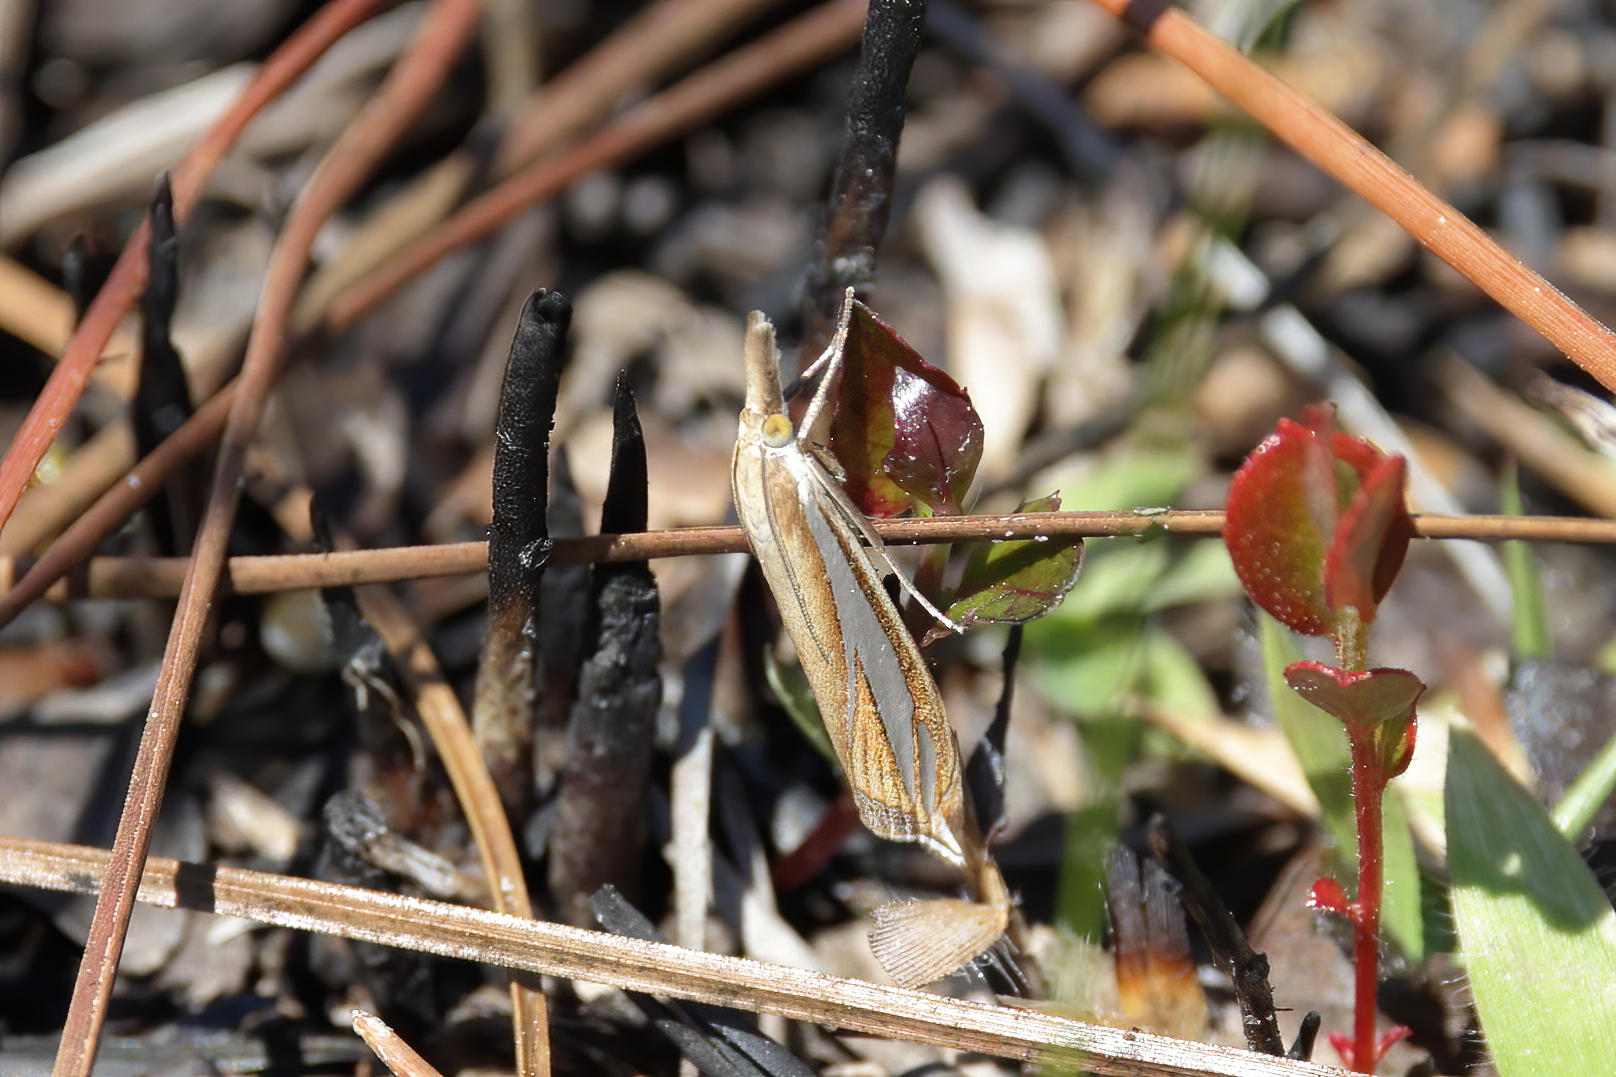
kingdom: Animalia
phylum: Arthropoda
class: Insecta
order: Lepidoptera
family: Crambidae
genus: Crambus
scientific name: Crambus satrapellus
